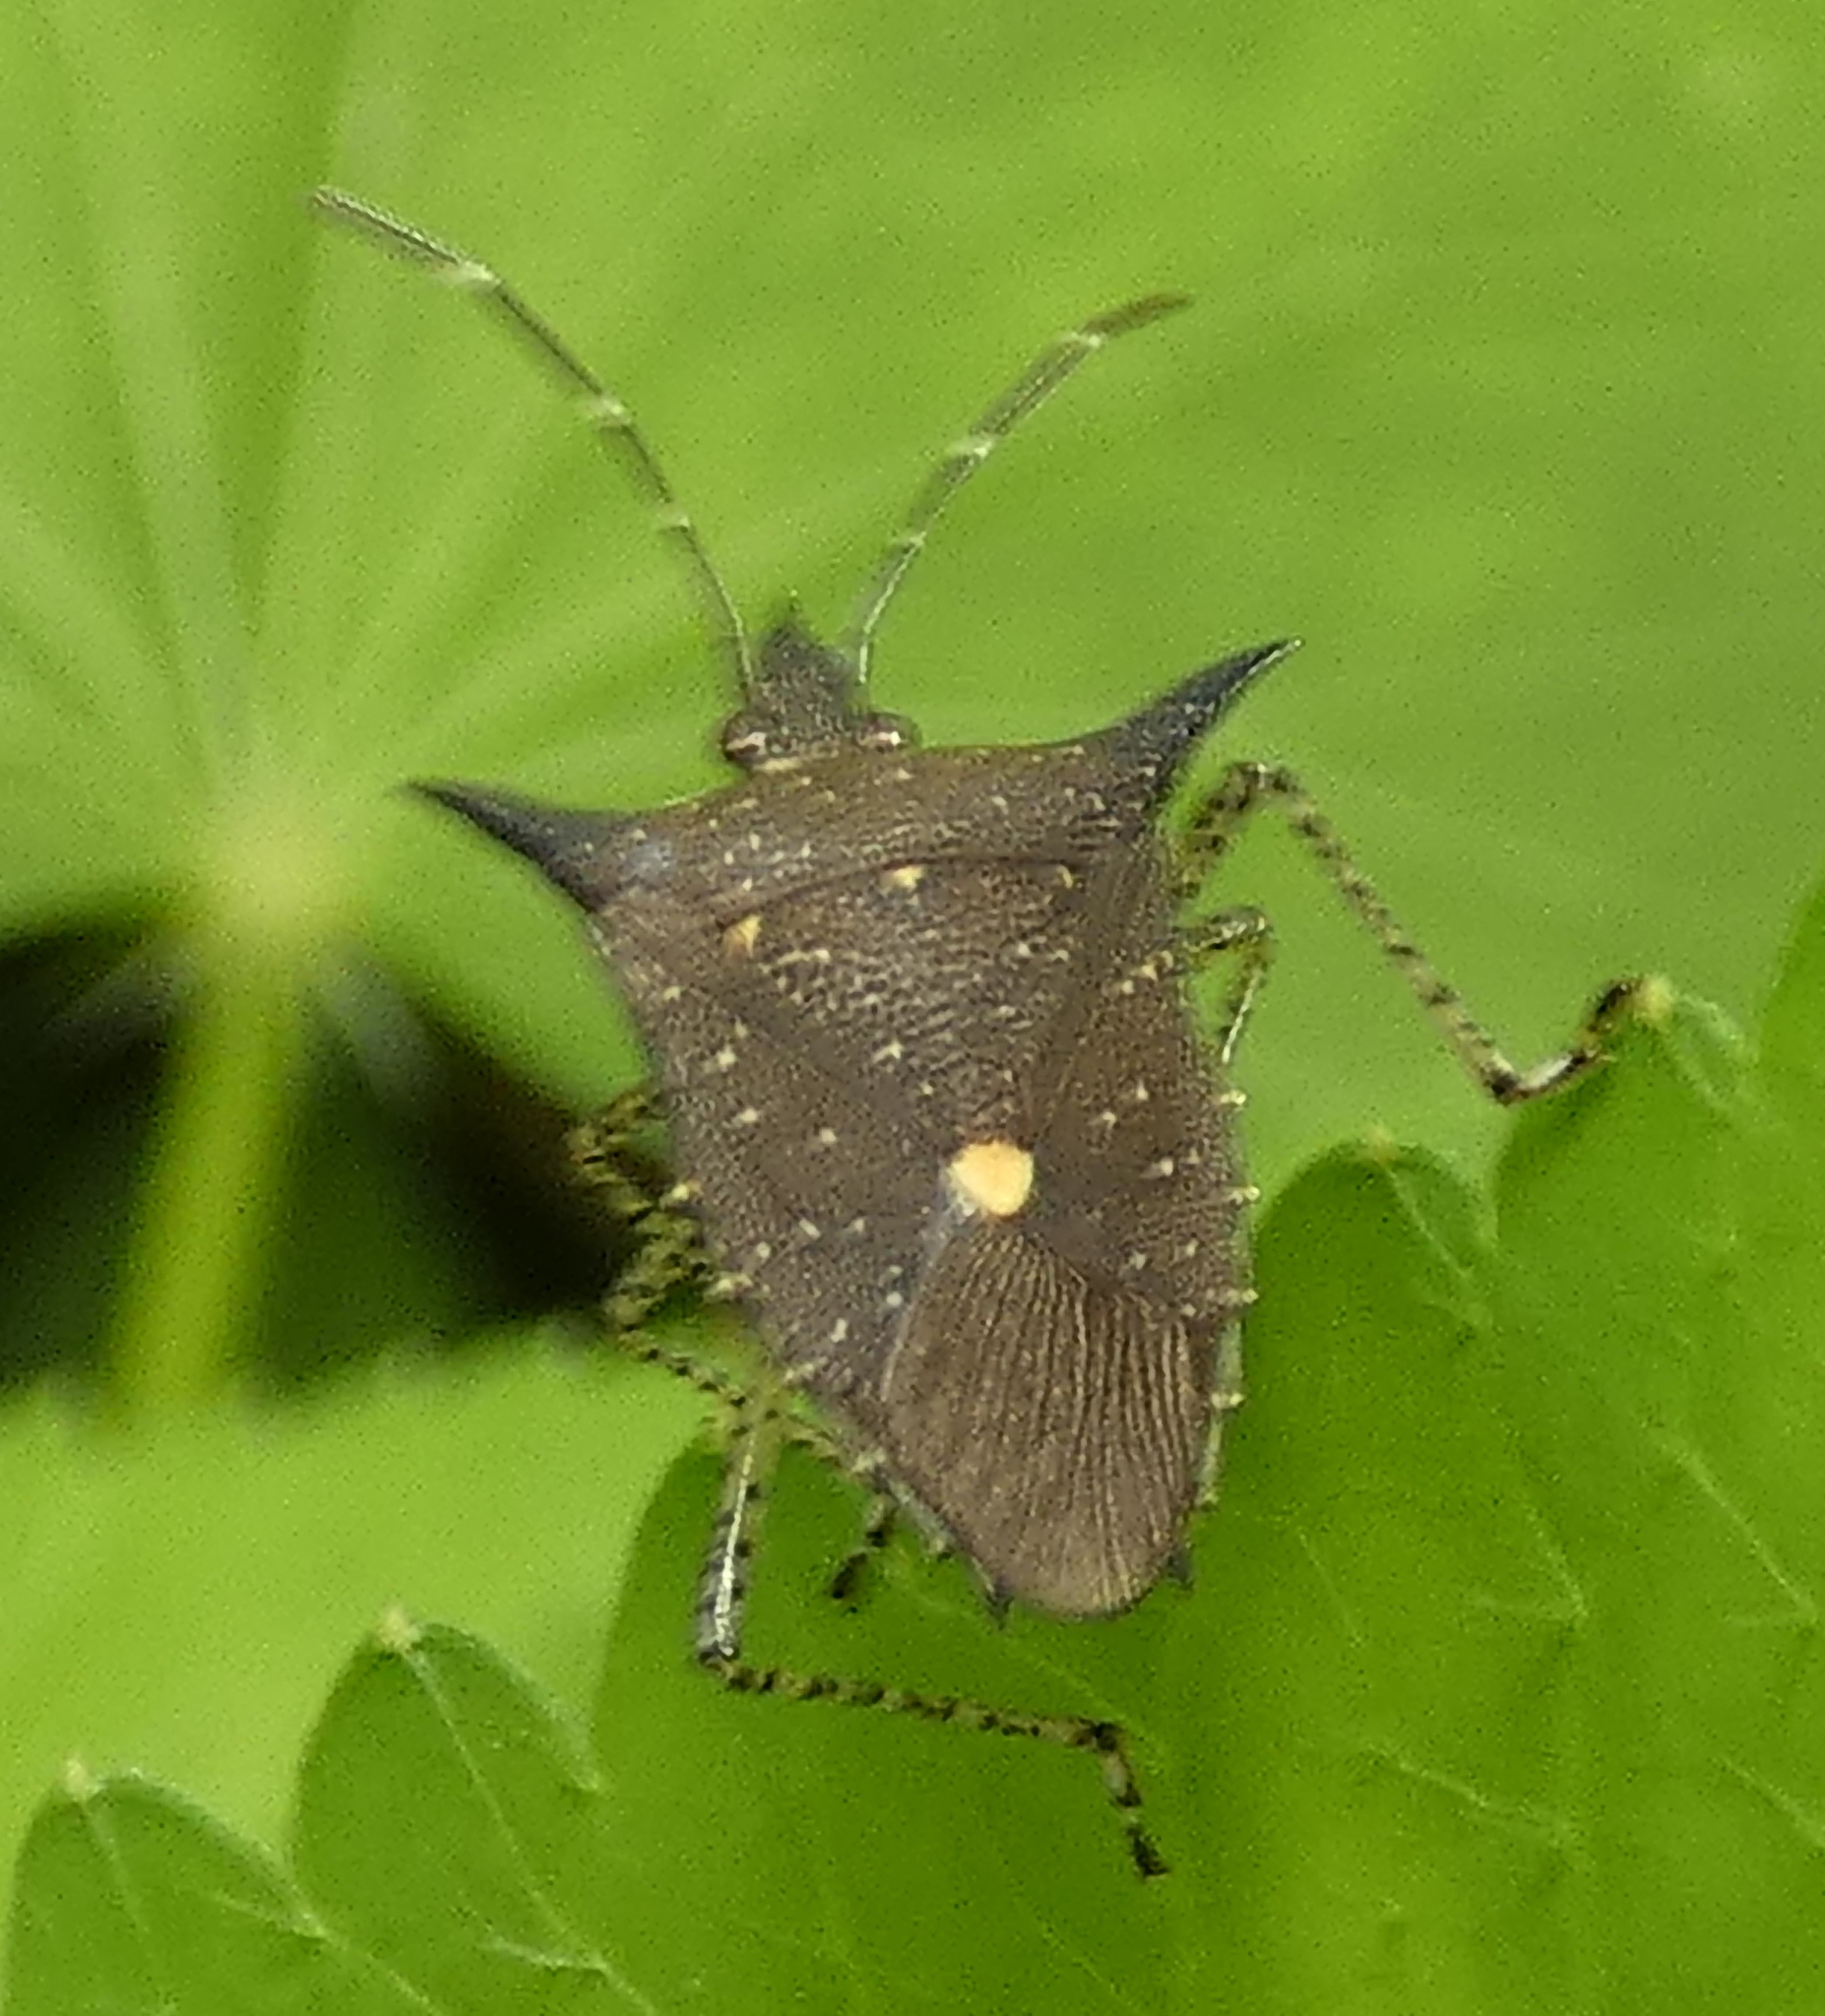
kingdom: Animalia
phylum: Arthropoda
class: Insecta
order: Hemiptera
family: Pentatomidae
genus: Proxys
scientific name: Proxys albopunctulatus
